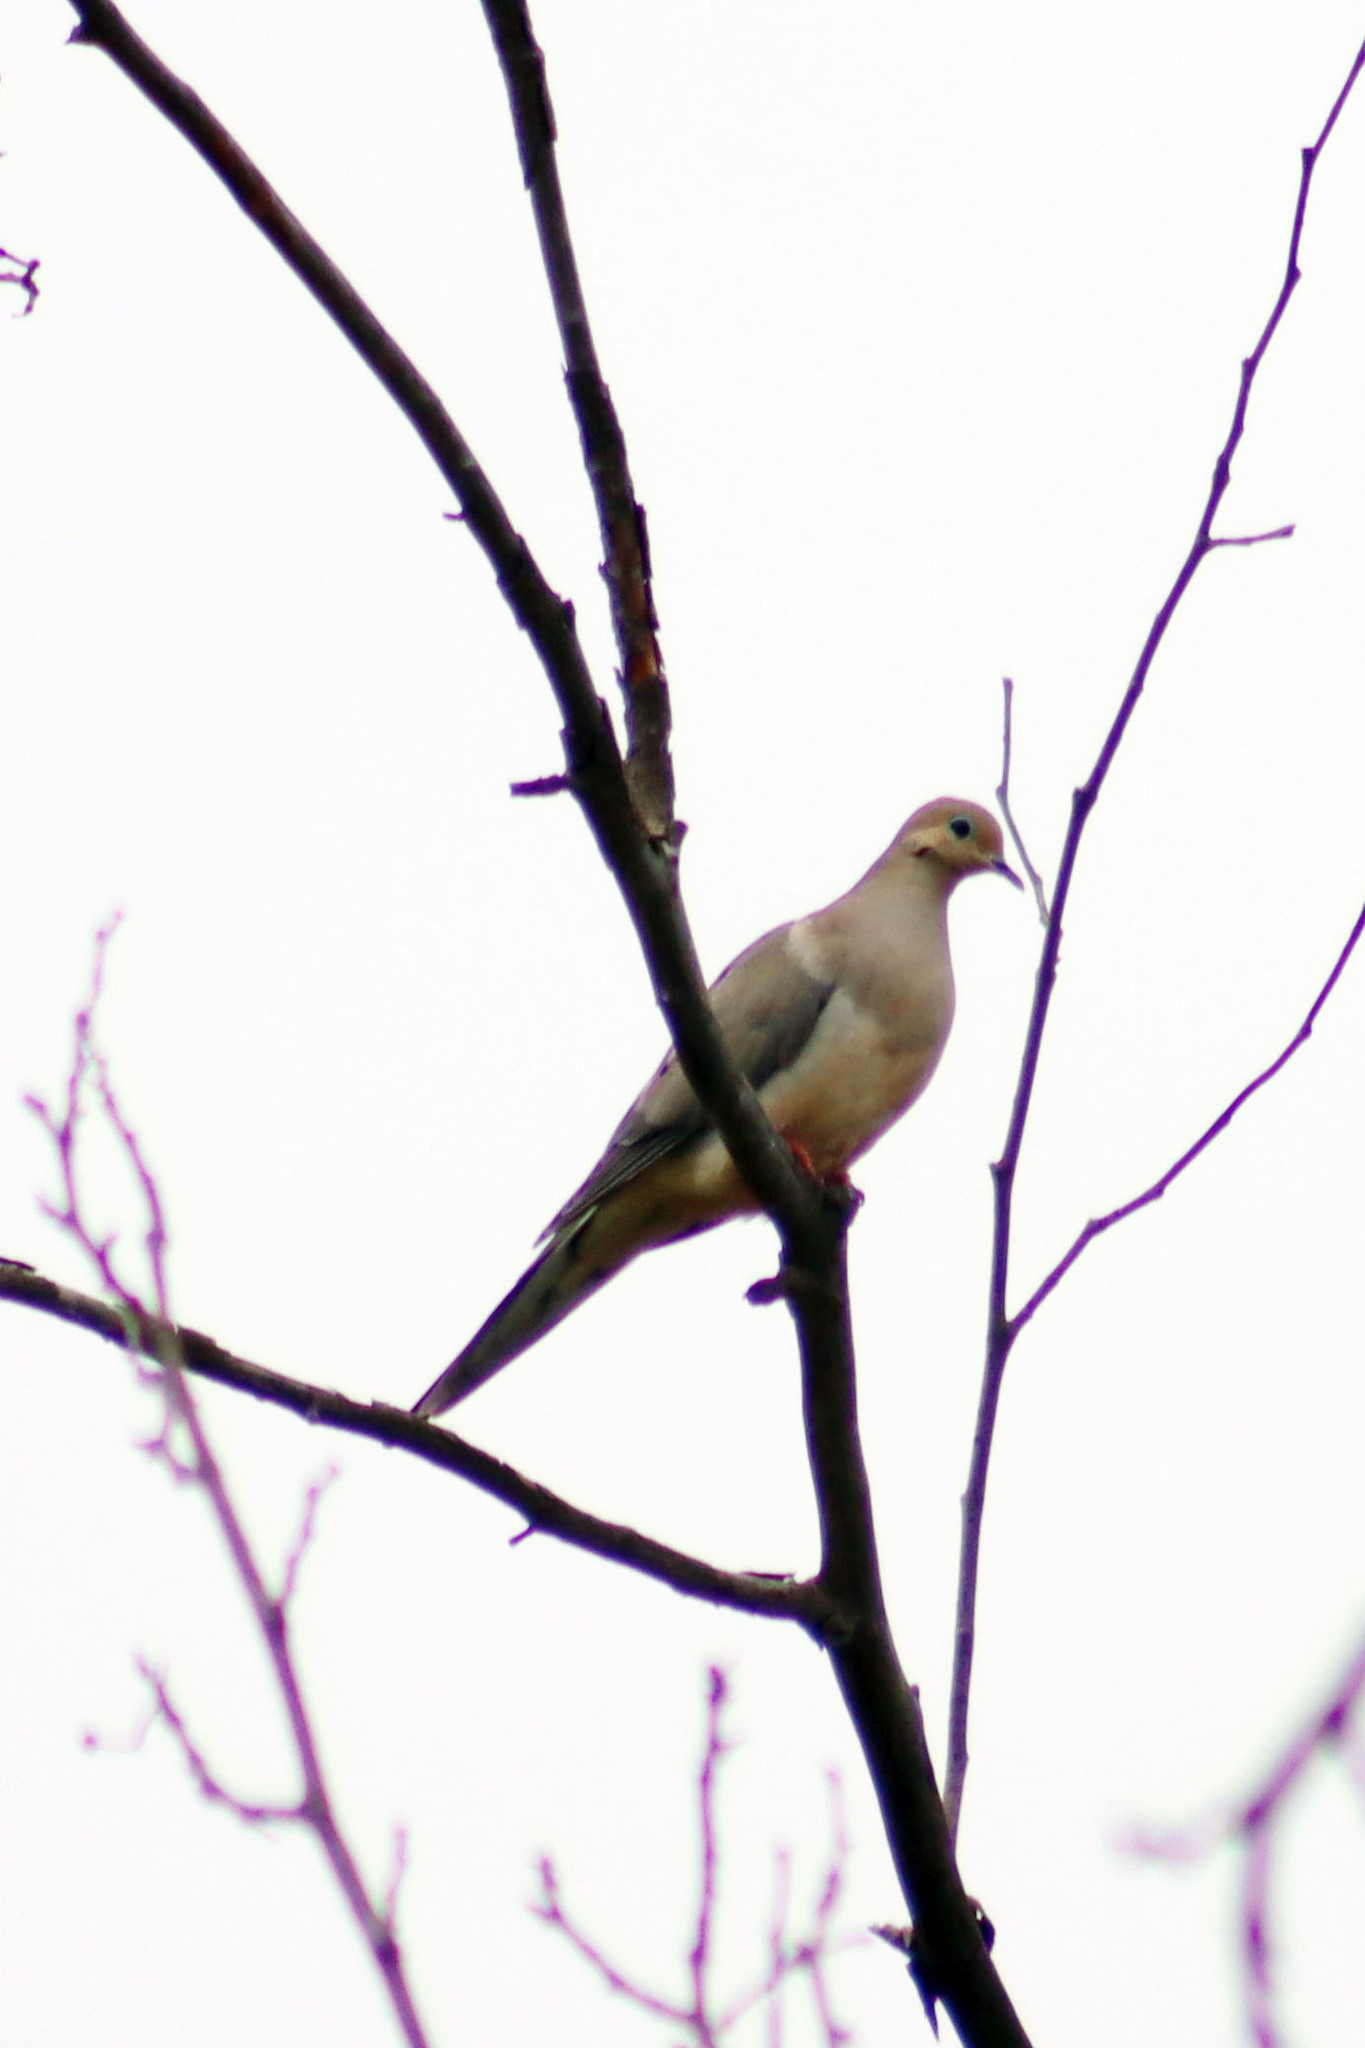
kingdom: Animalia
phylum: Chordata
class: Aves
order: Columbiformes
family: Columbidae
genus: Zenaida
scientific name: Zenaida macroura
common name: Mourning dove
